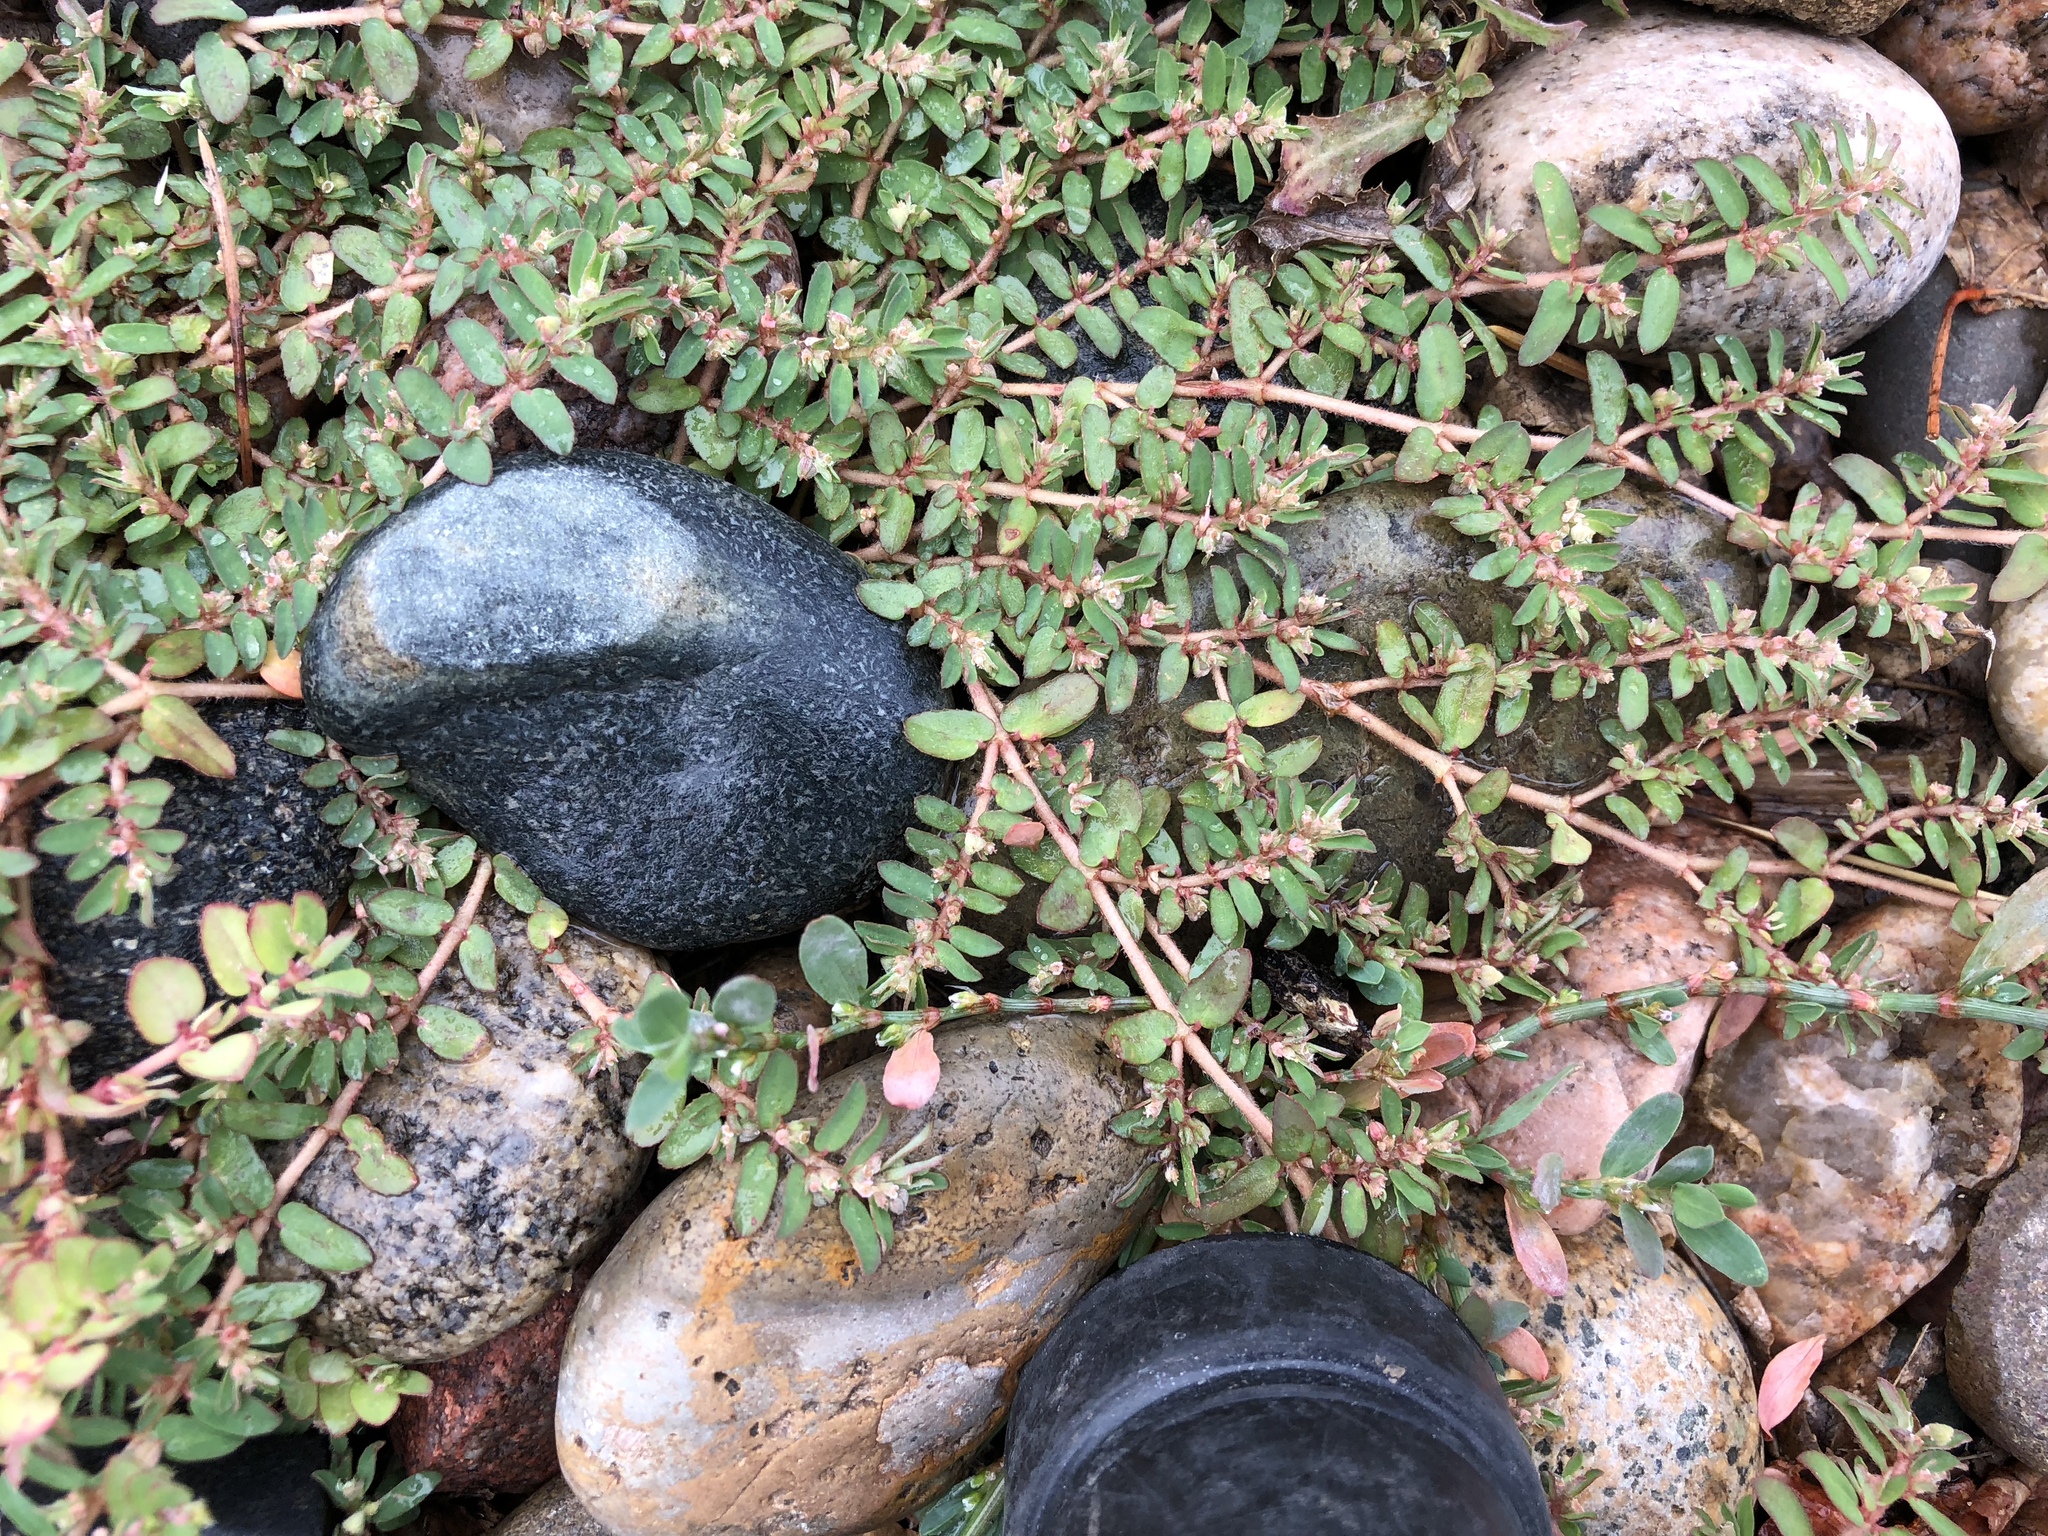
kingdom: Plantae
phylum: Tracheophyta
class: Magnoliopsida
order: Malpighiales
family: Euphorbiaceae
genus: Euphorbia
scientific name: Euphorbia maculata
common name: Spotted spurge
